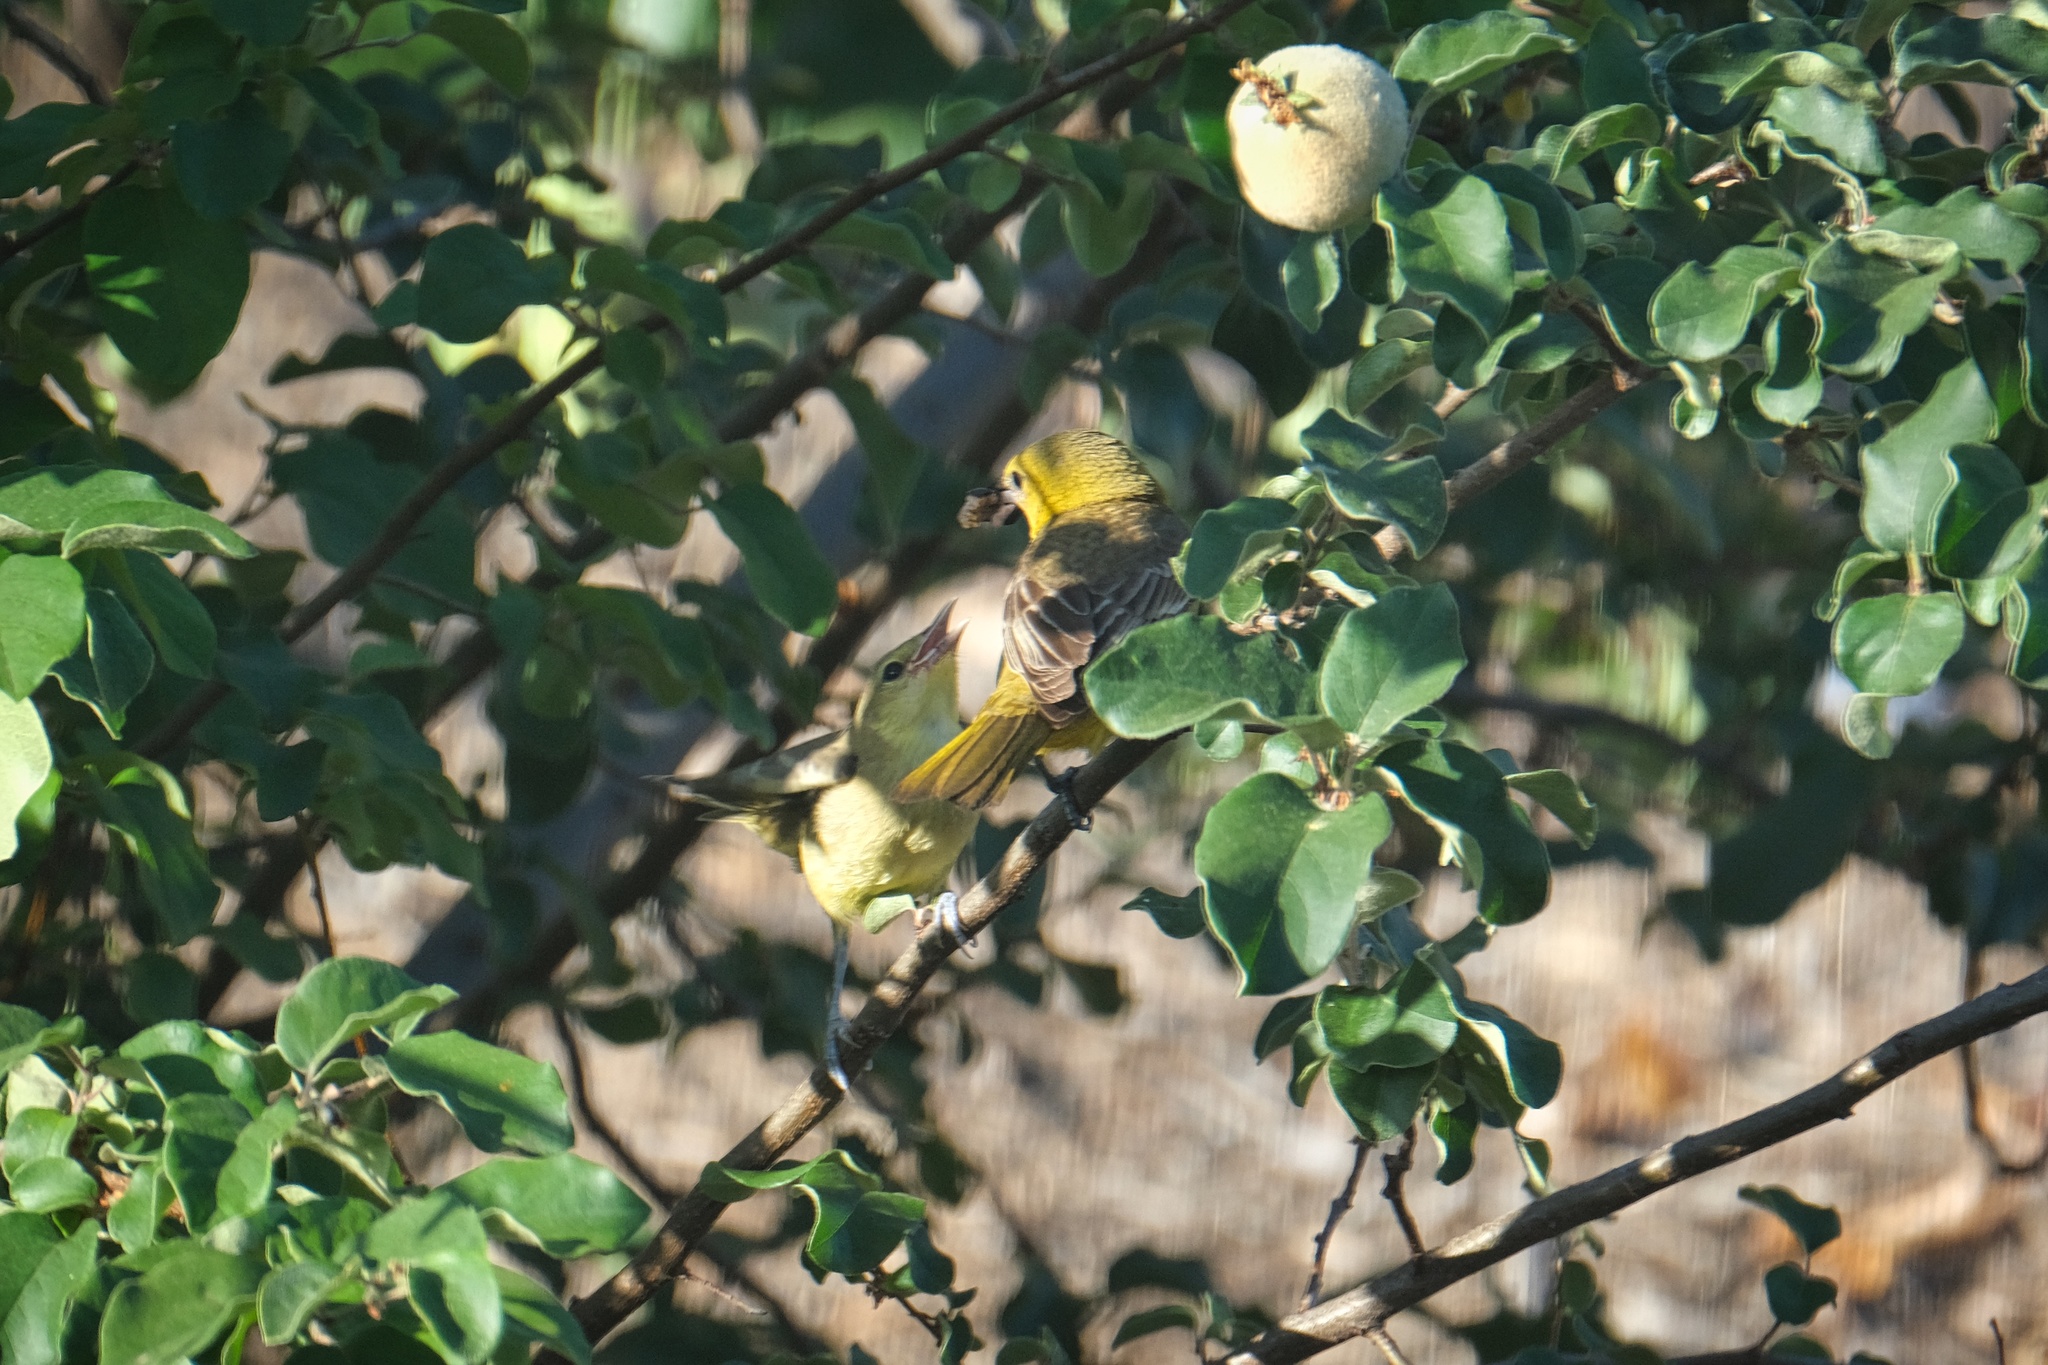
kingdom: Animalia
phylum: Chordata
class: Aves
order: Passeriformes
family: Icteridae
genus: Icterus
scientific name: Icterus cucullatus
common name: Hooded oriole
